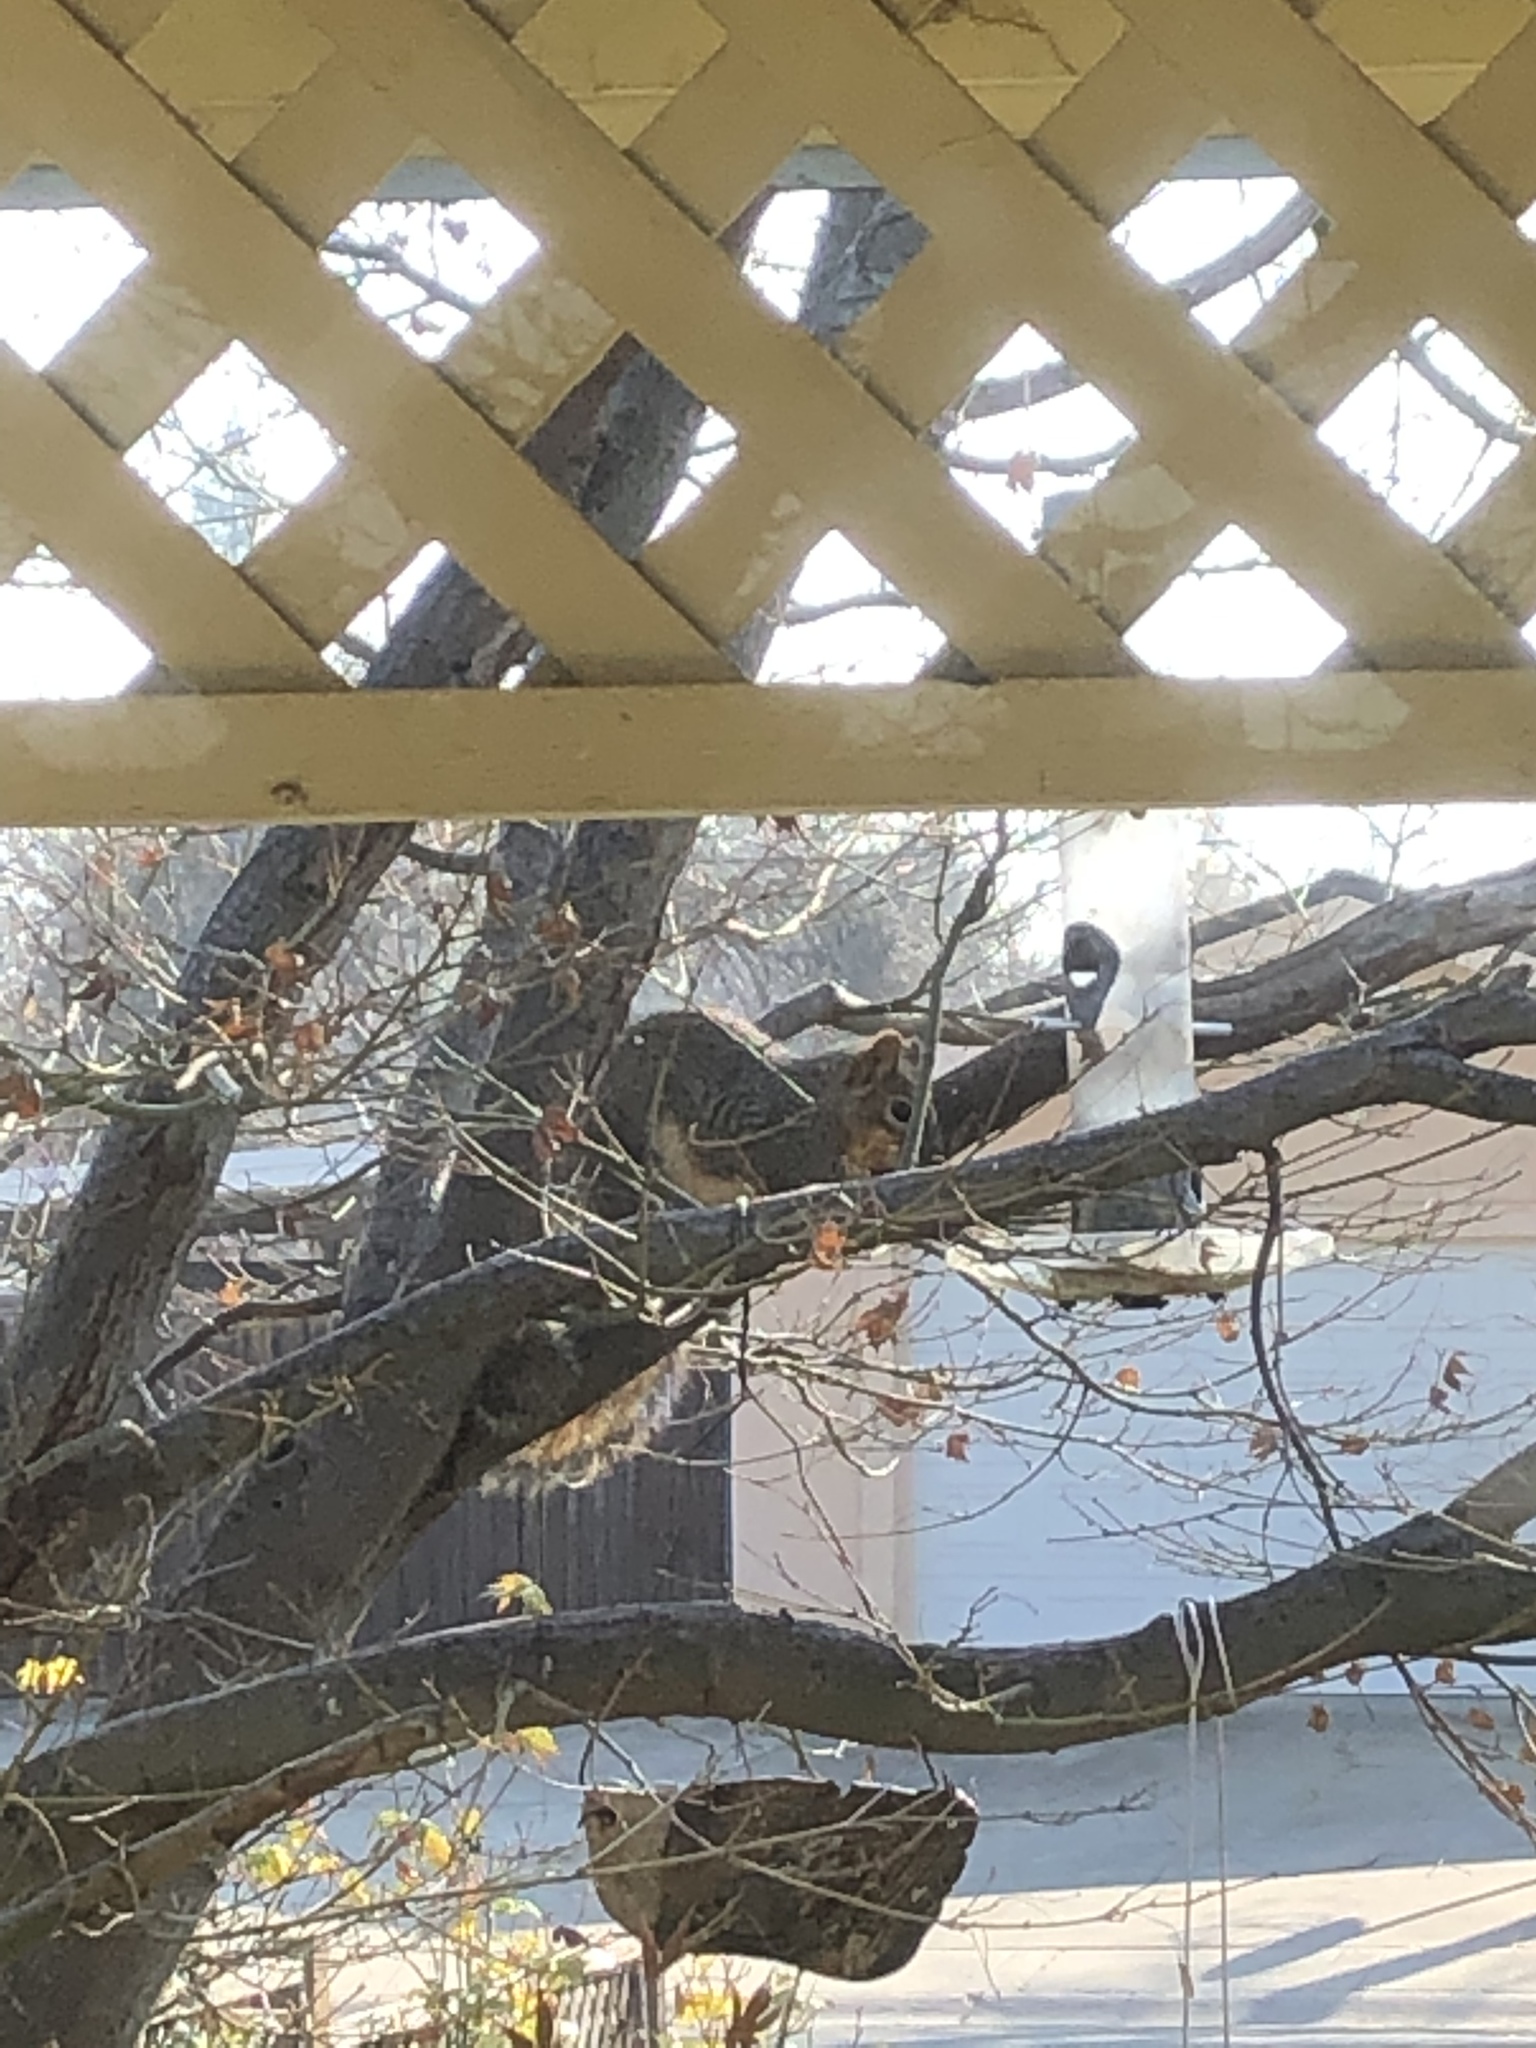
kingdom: Animalia
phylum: Chordata
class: Mammalia
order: Rodentia
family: Sciuridae
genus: Sciurus
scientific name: Sciurus niger
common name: Fox squirrel
